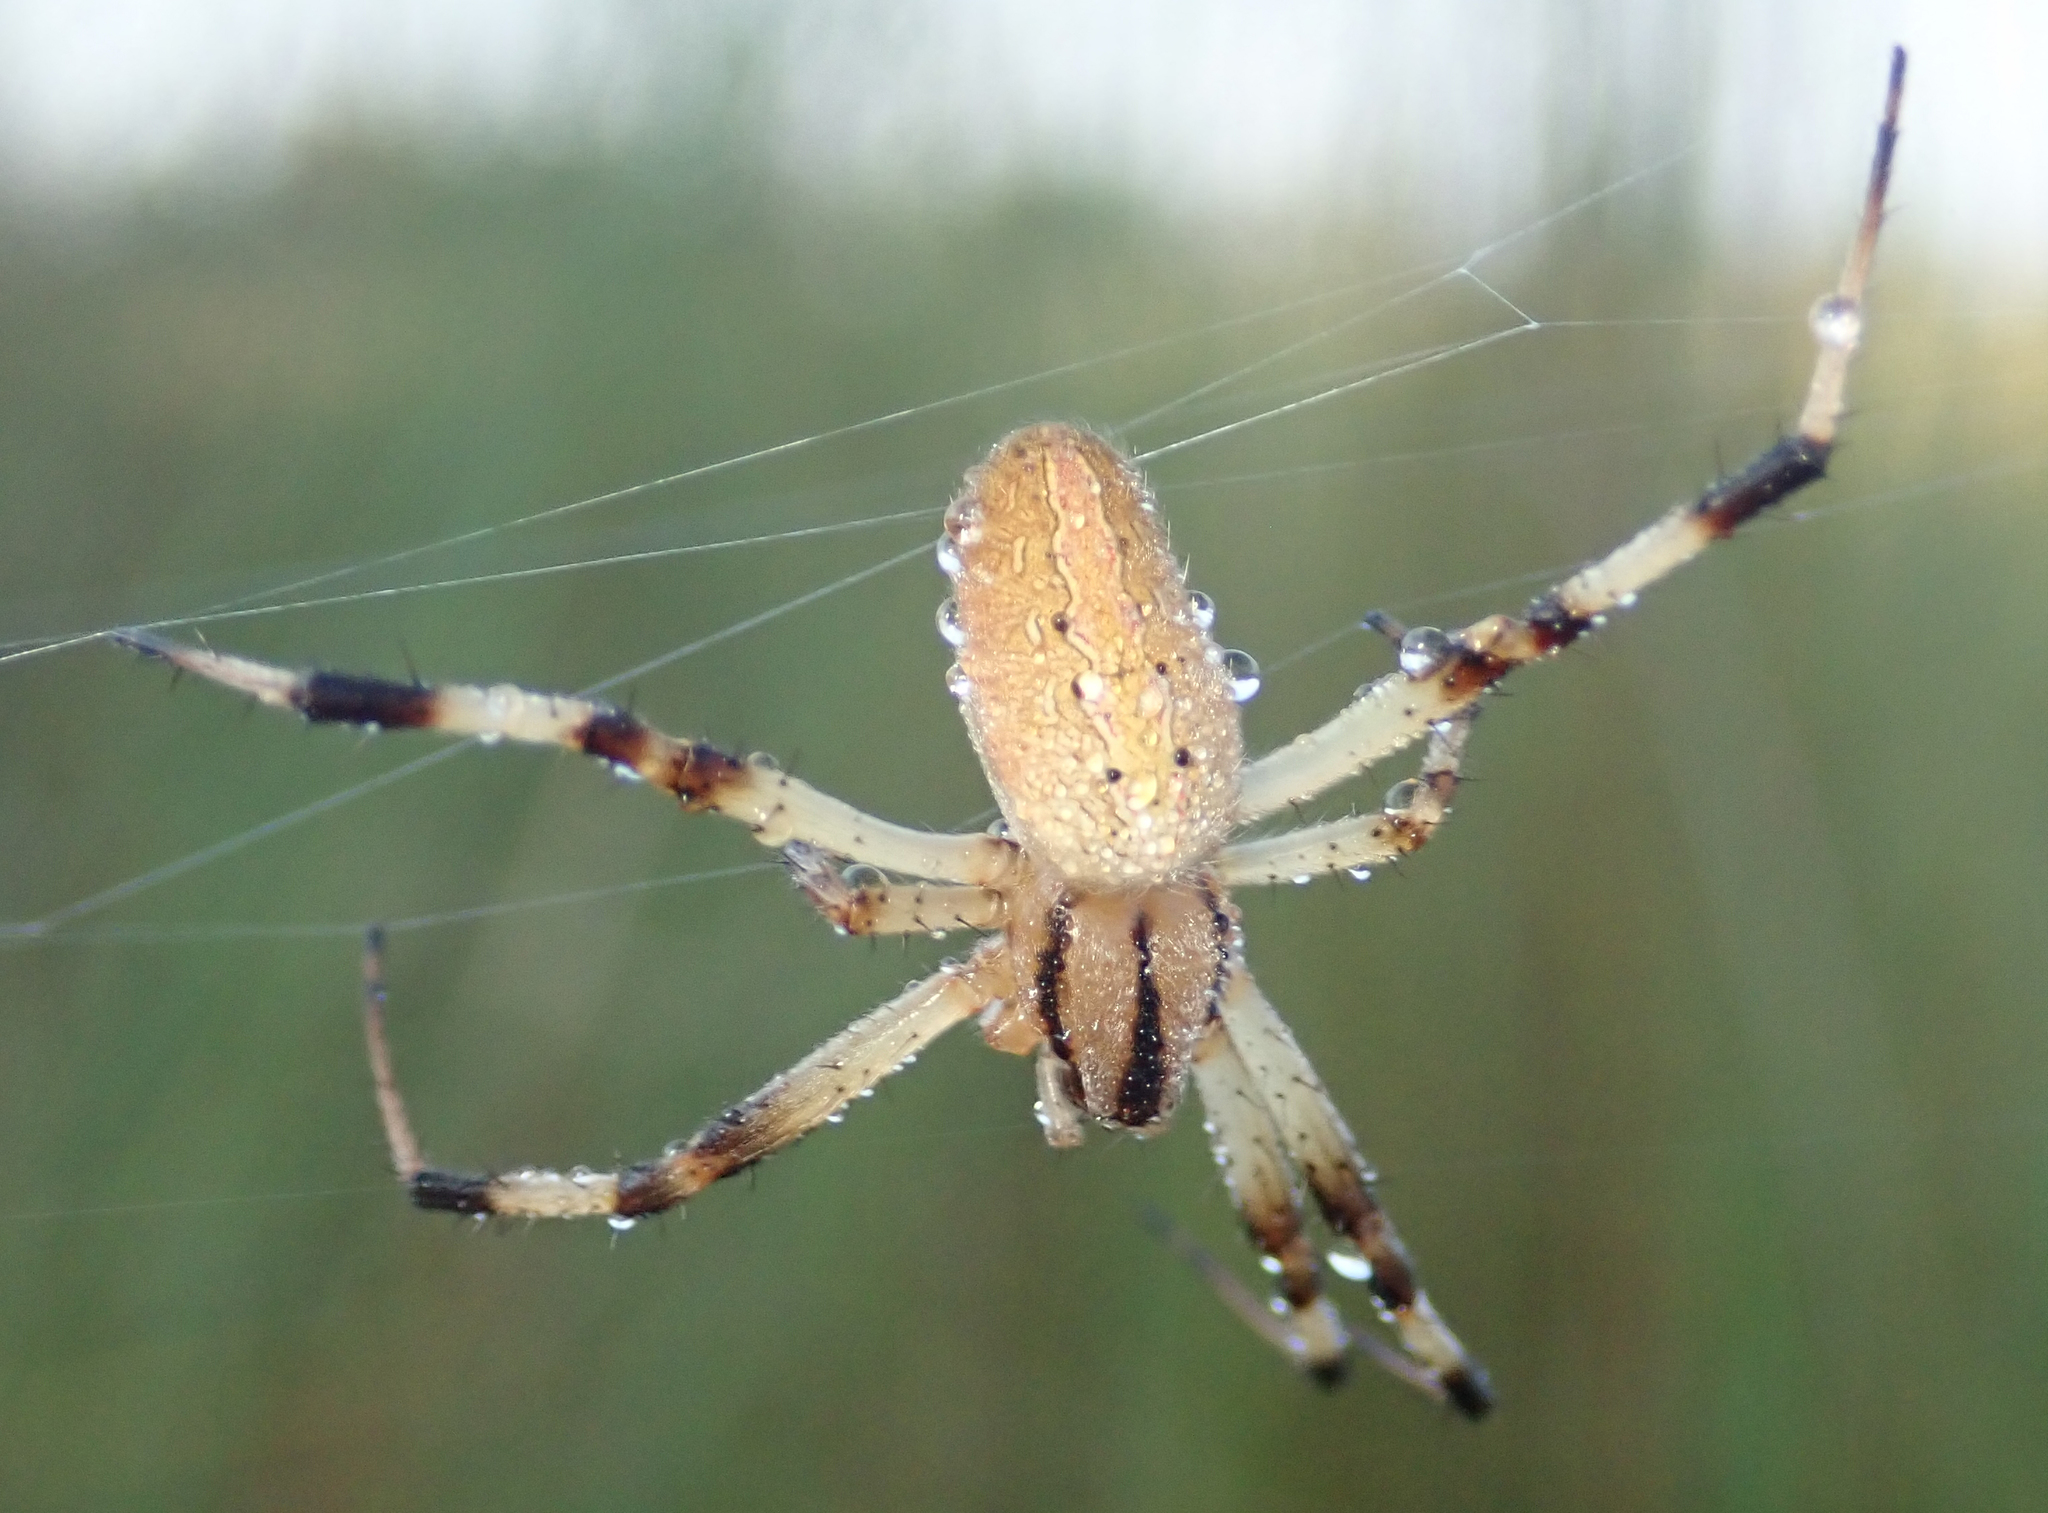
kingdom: Animalia
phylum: Arthropoda
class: Arachnida
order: Araneae
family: Araneidae
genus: Neoscona
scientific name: Neoscona moreli
